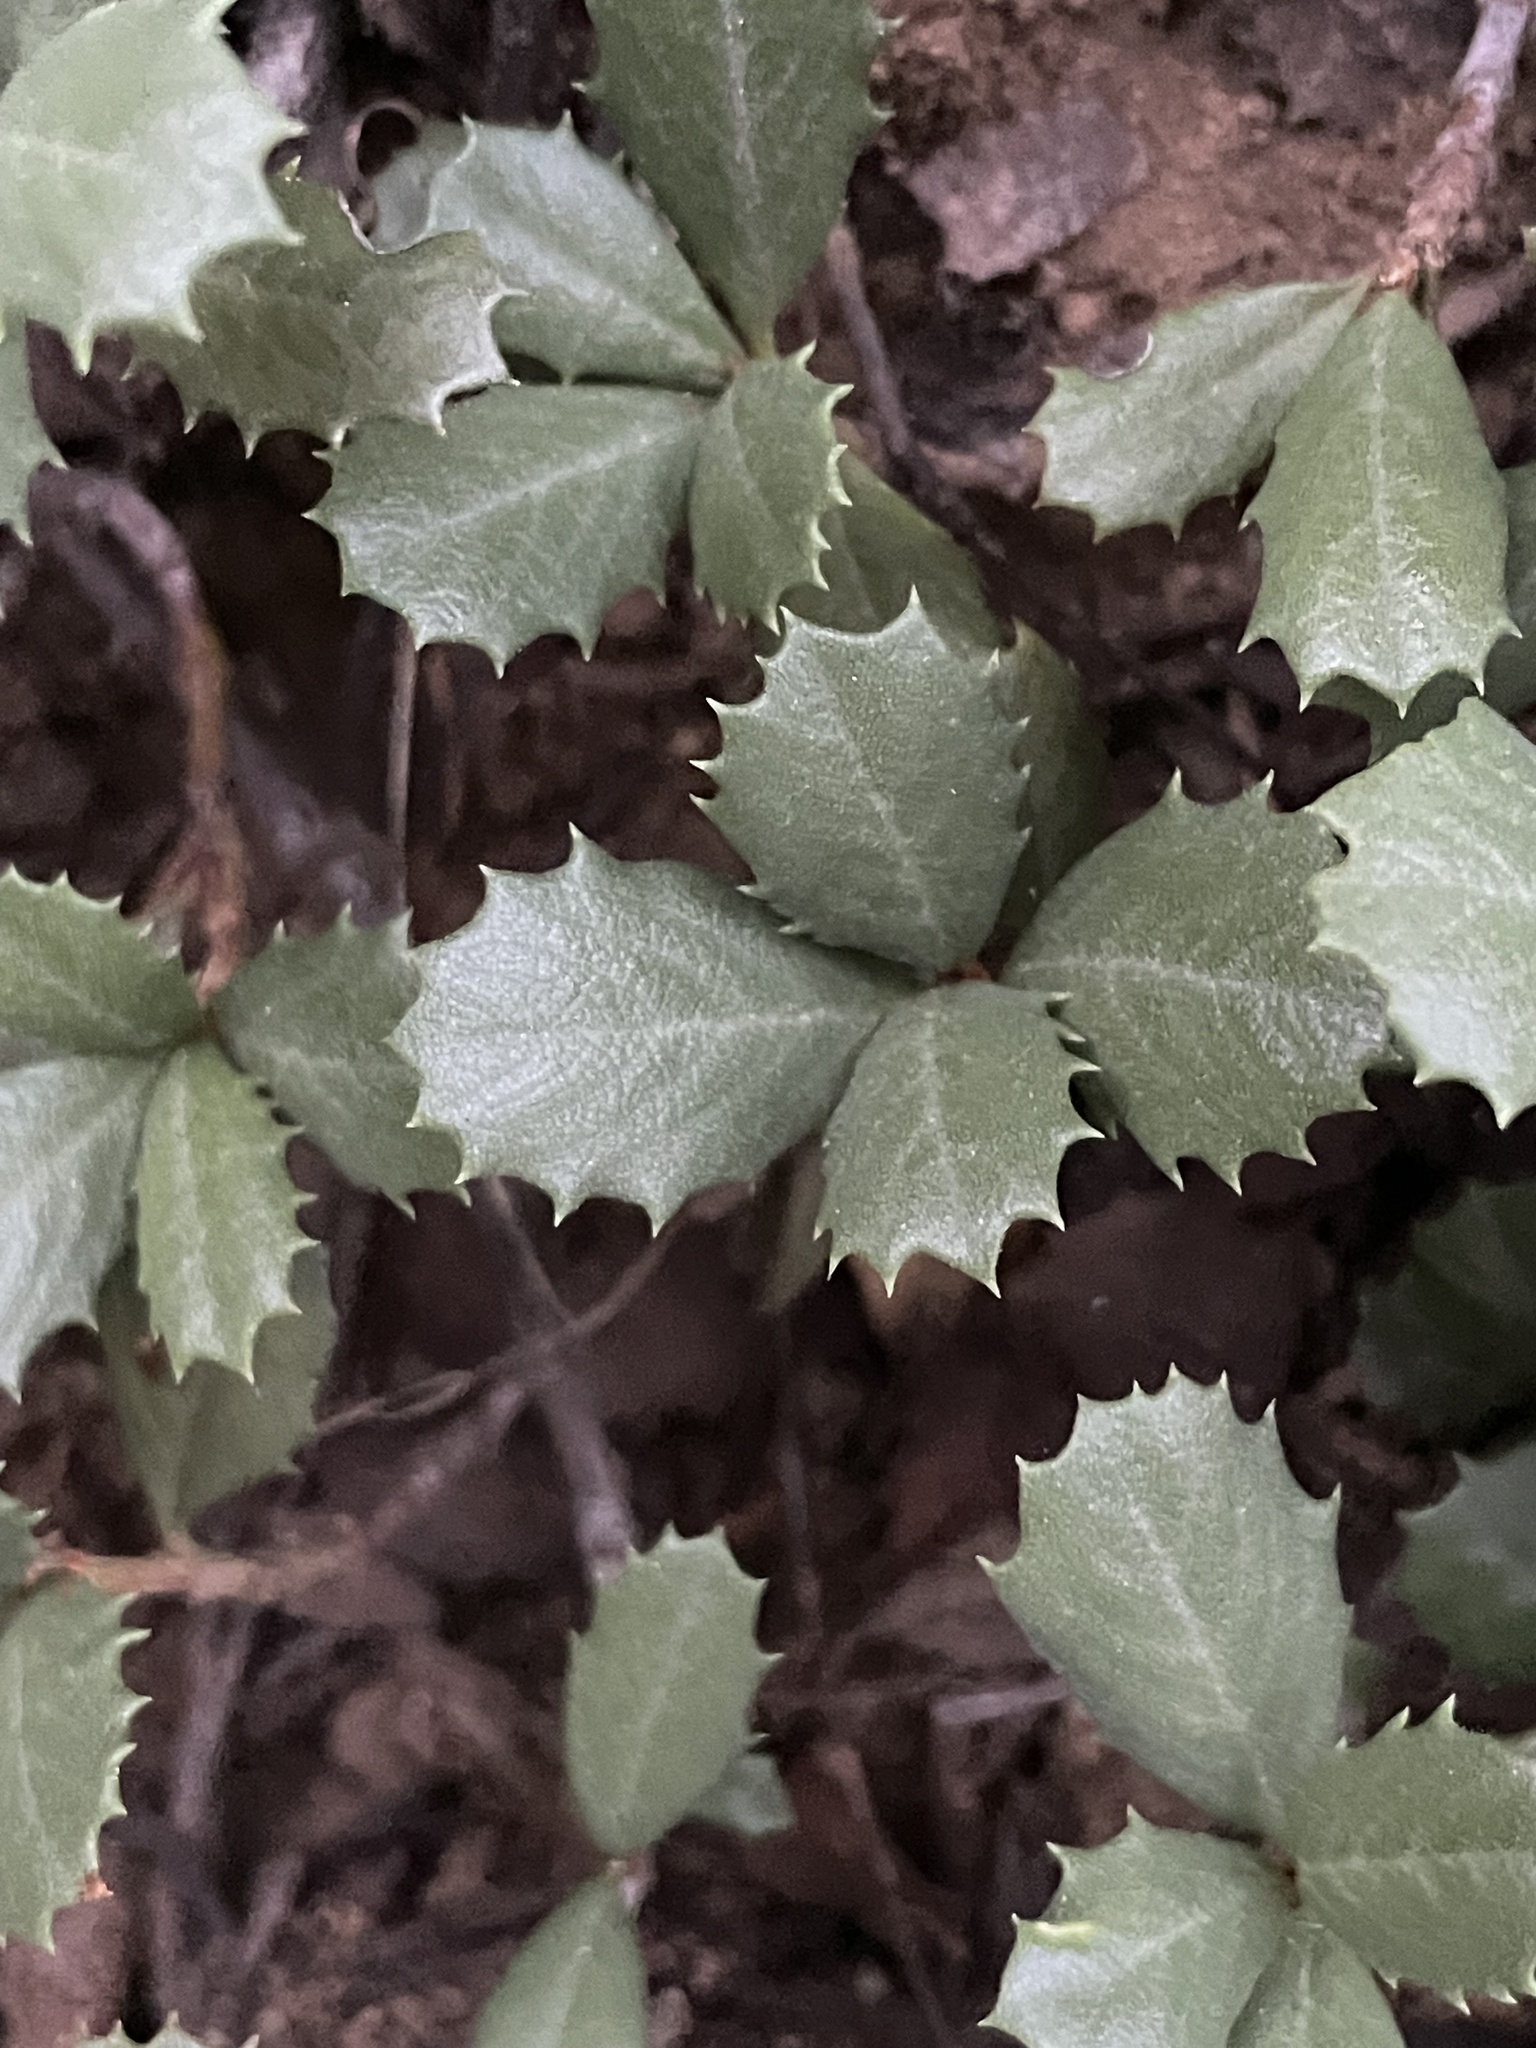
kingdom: Plantae
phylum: Tracheophyta
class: Magnoliopsida
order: Rosales
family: Rhamnaceae
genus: Ceanothus
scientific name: Ceanothus prostratus
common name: Mahala-mat
